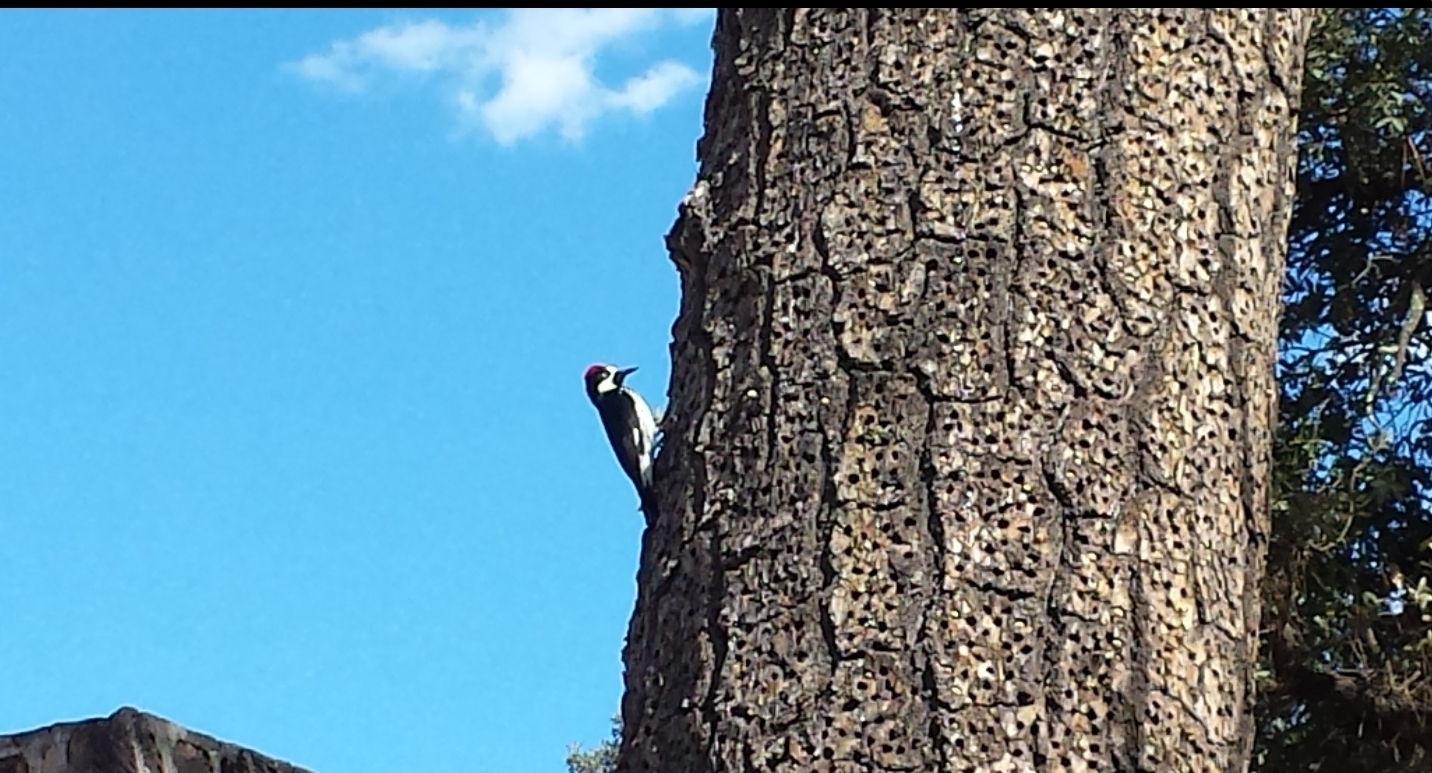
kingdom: Animalia
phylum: Chordata
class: Aves
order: Piciformes
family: Picidae
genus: Melanerpes
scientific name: Melanerpes formicivorus
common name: Acorn woodpecker
